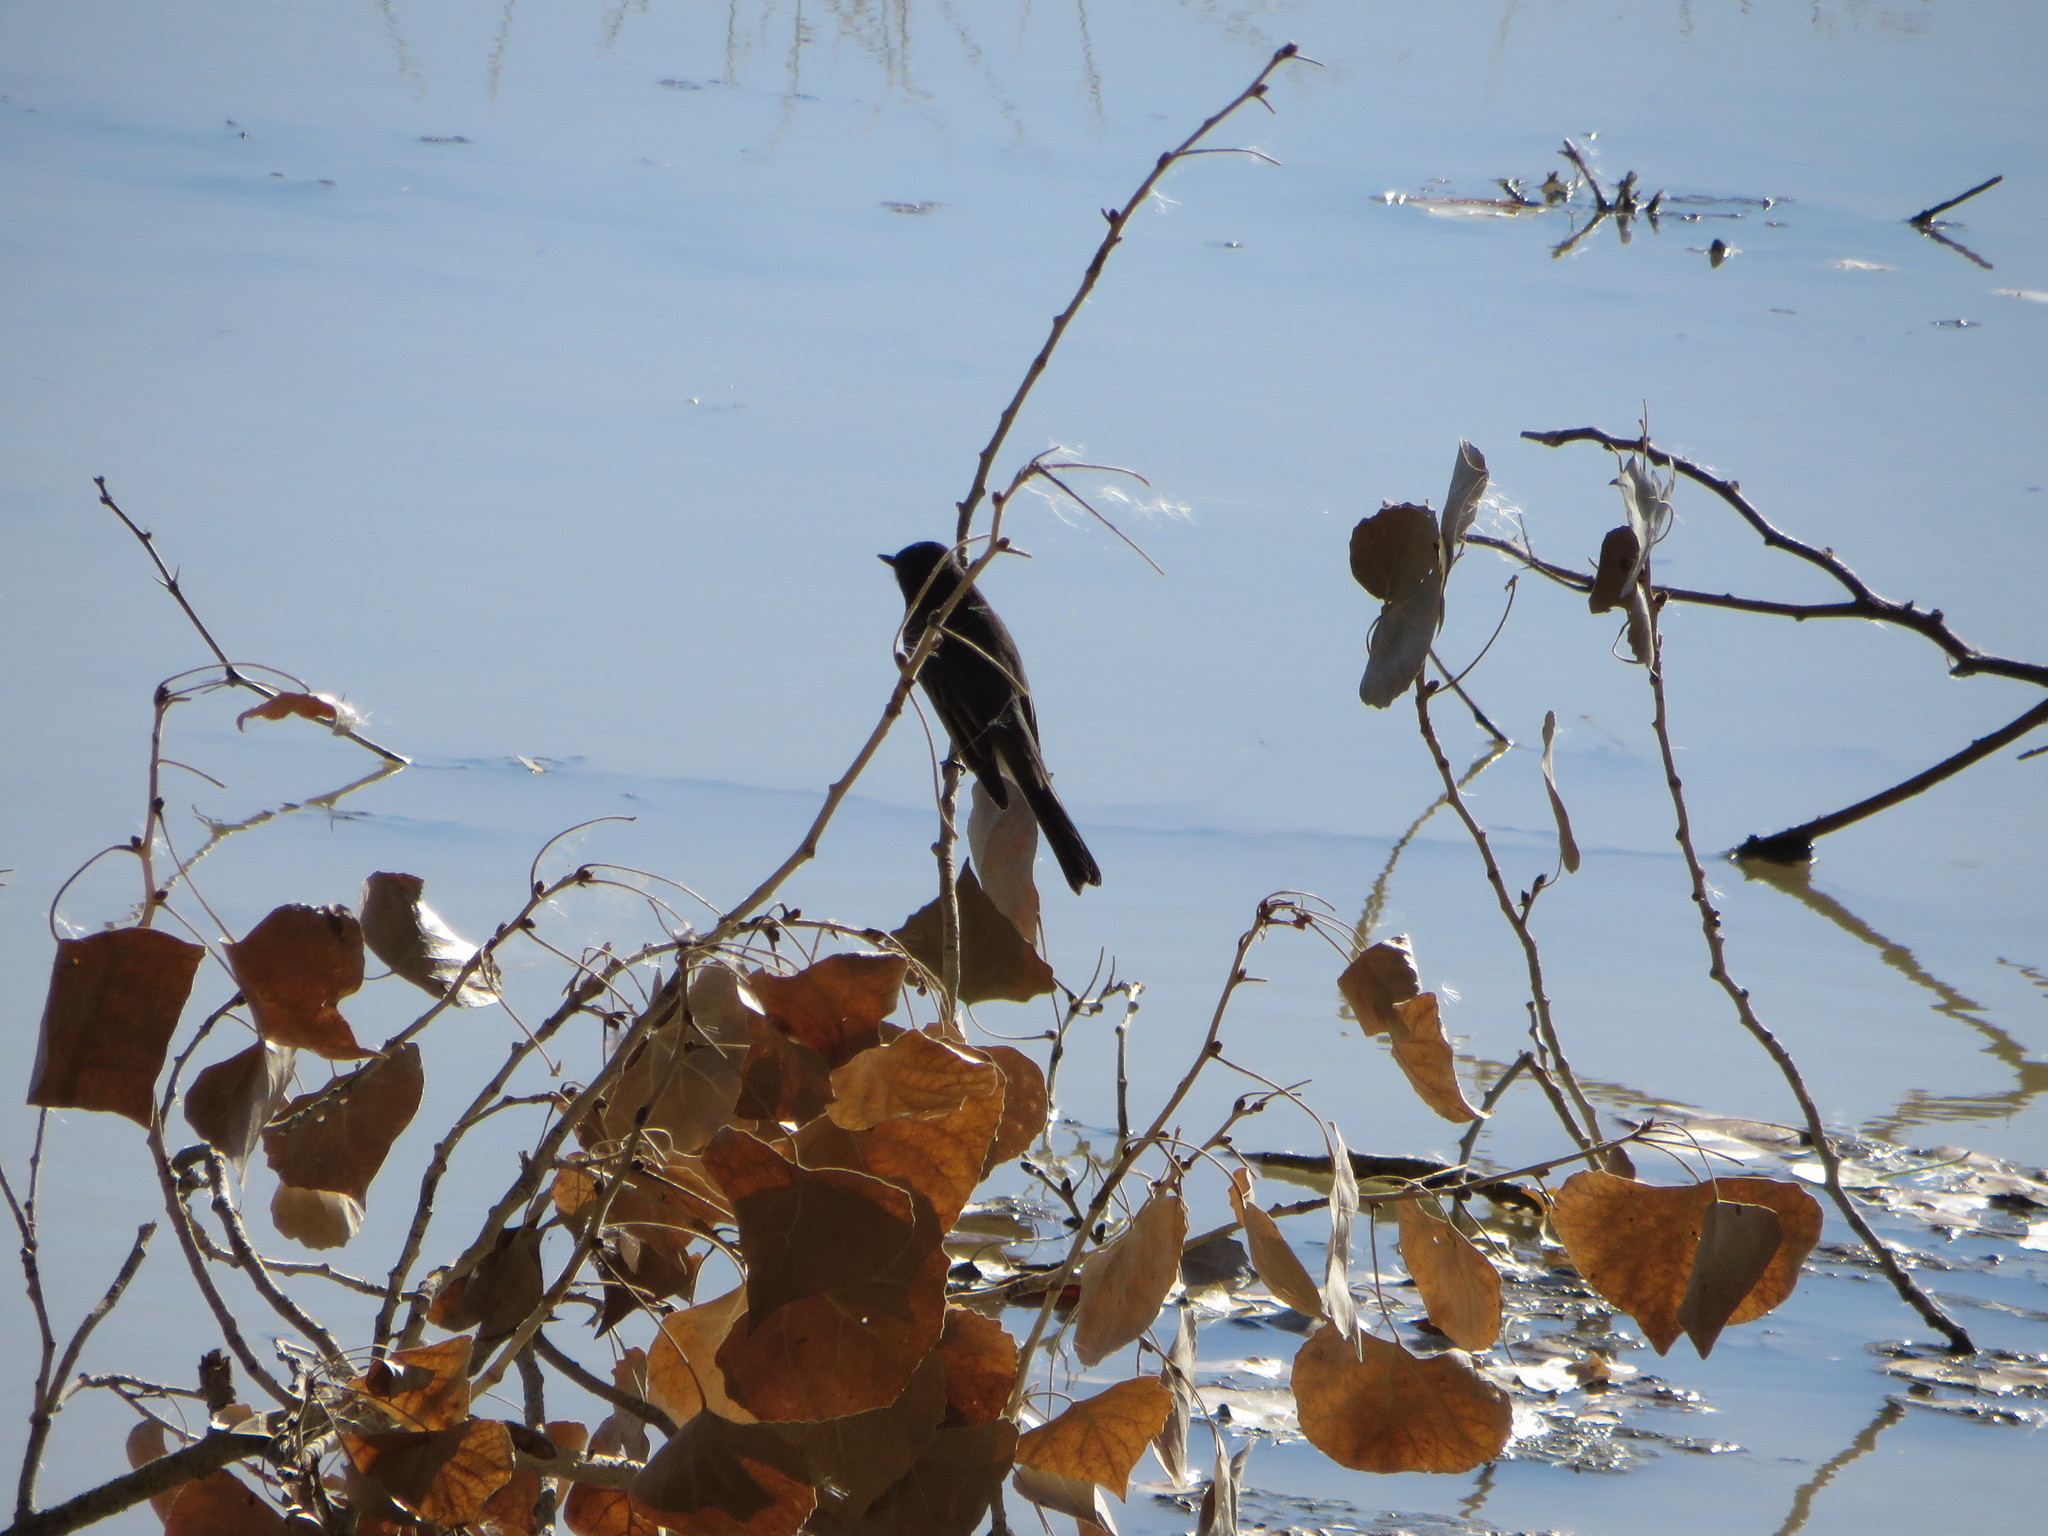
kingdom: Animalia
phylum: Chordata
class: Aves
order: Passeriformes
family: Tyrannidae
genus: Sayornis
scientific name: Sayornis nigricans
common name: Black phoebe
